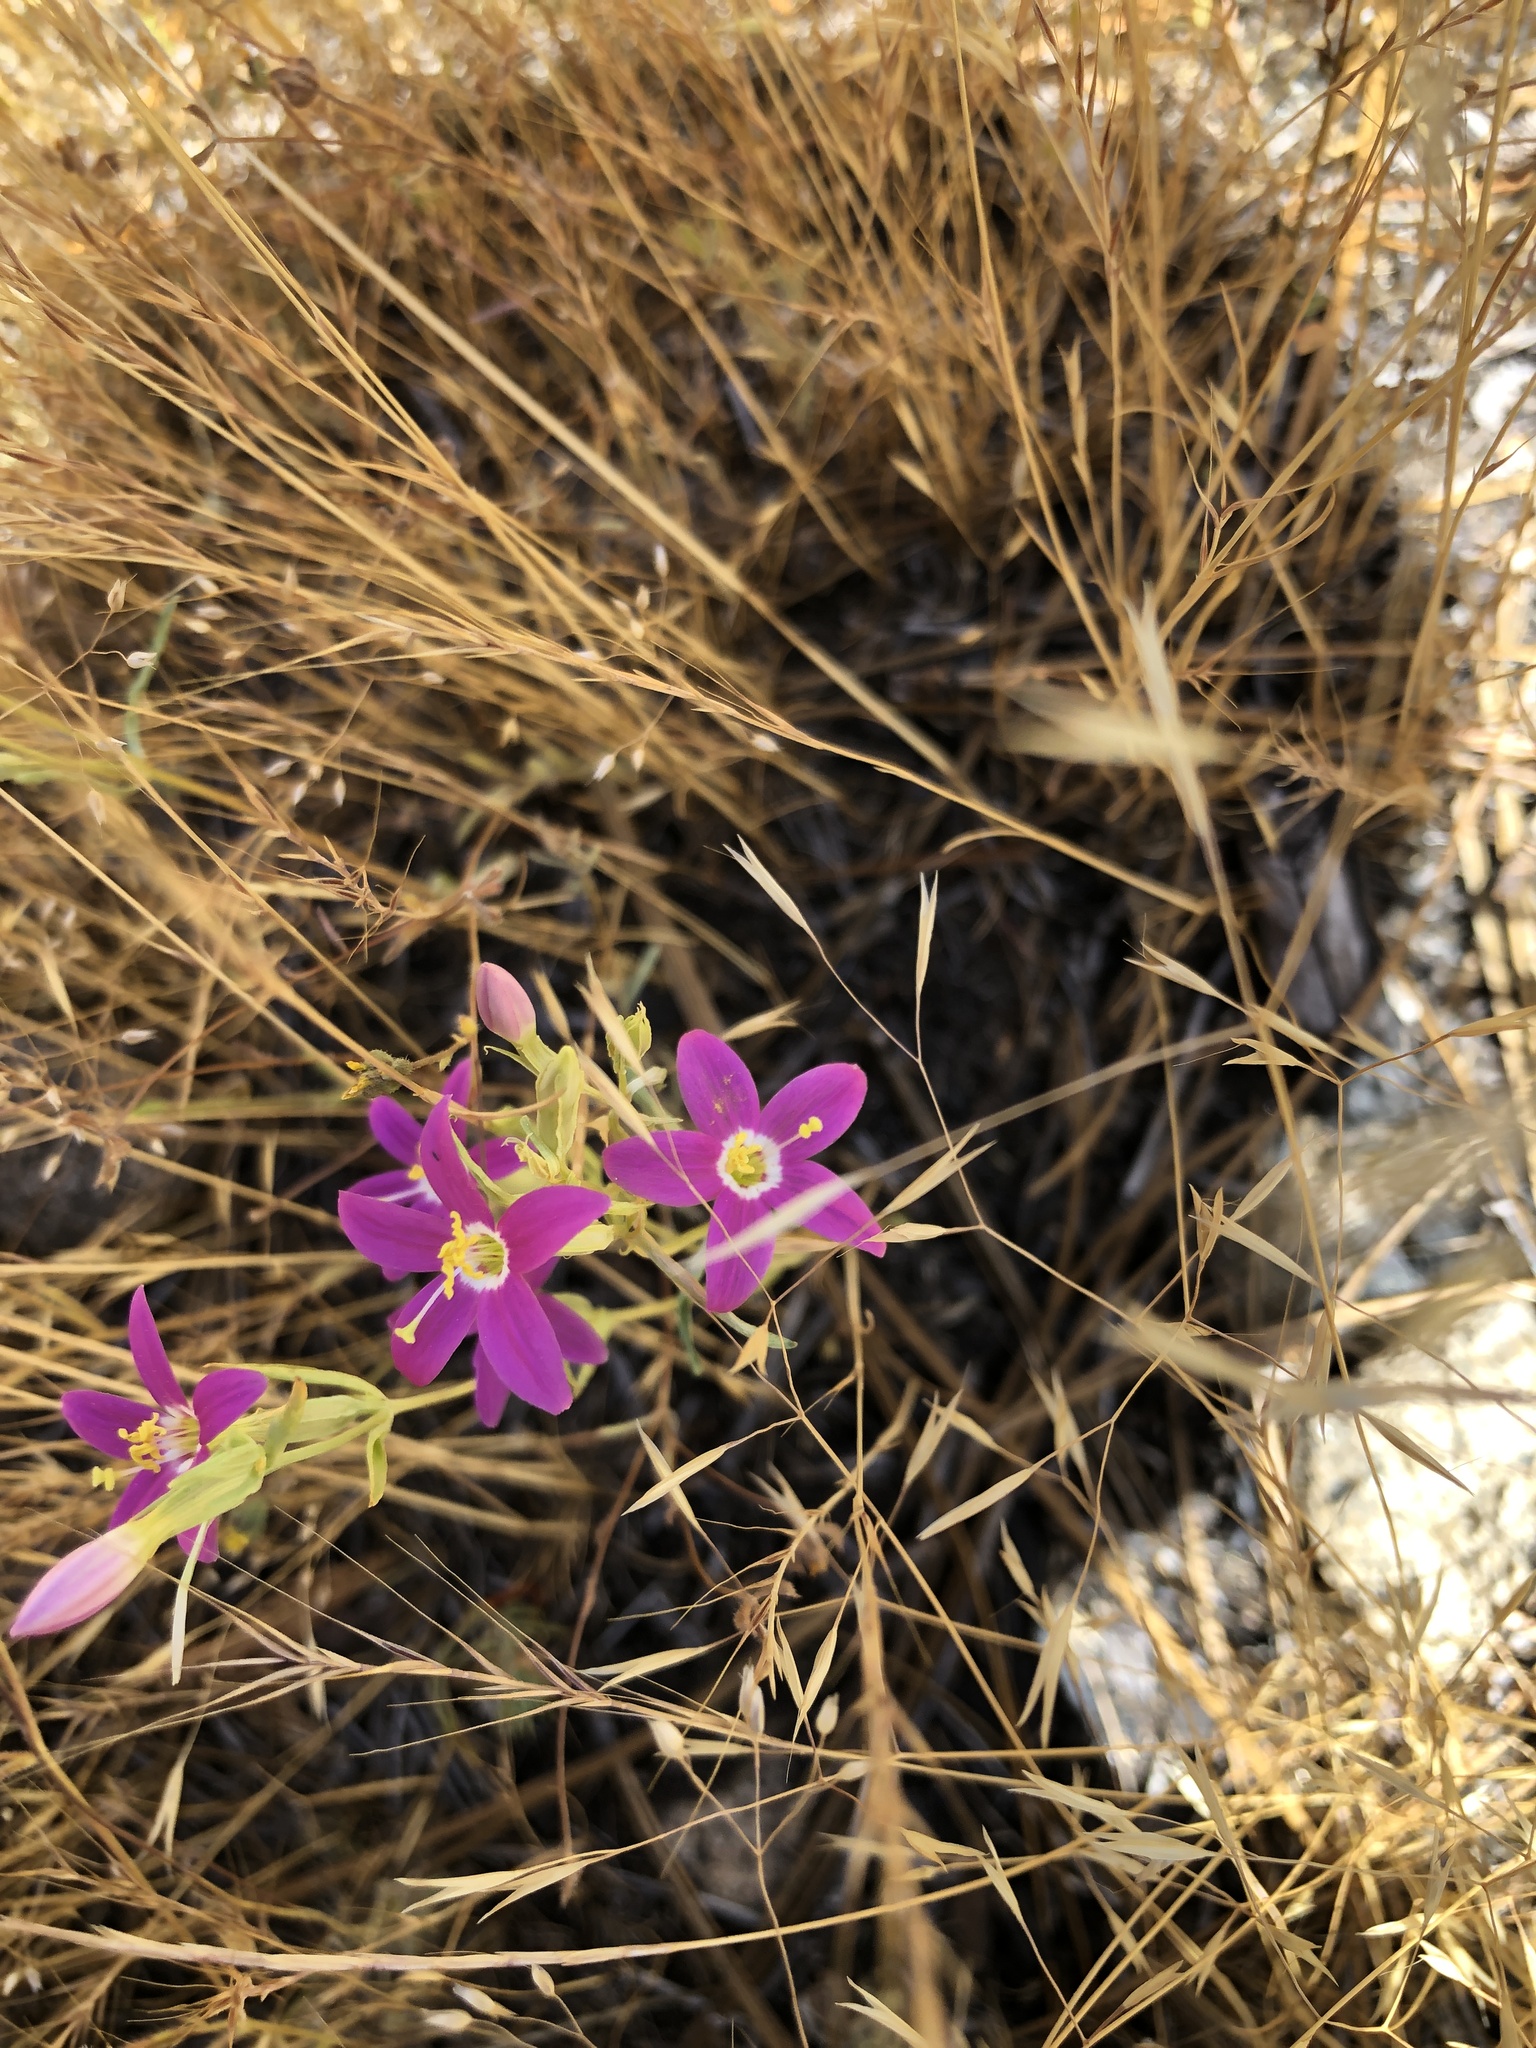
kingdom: Plantae
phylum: Tracheophyta
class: Magnoliopsida
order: Gentianales
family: Gentianaceae
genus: Zeltnera
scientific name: Zeltnera venusta
